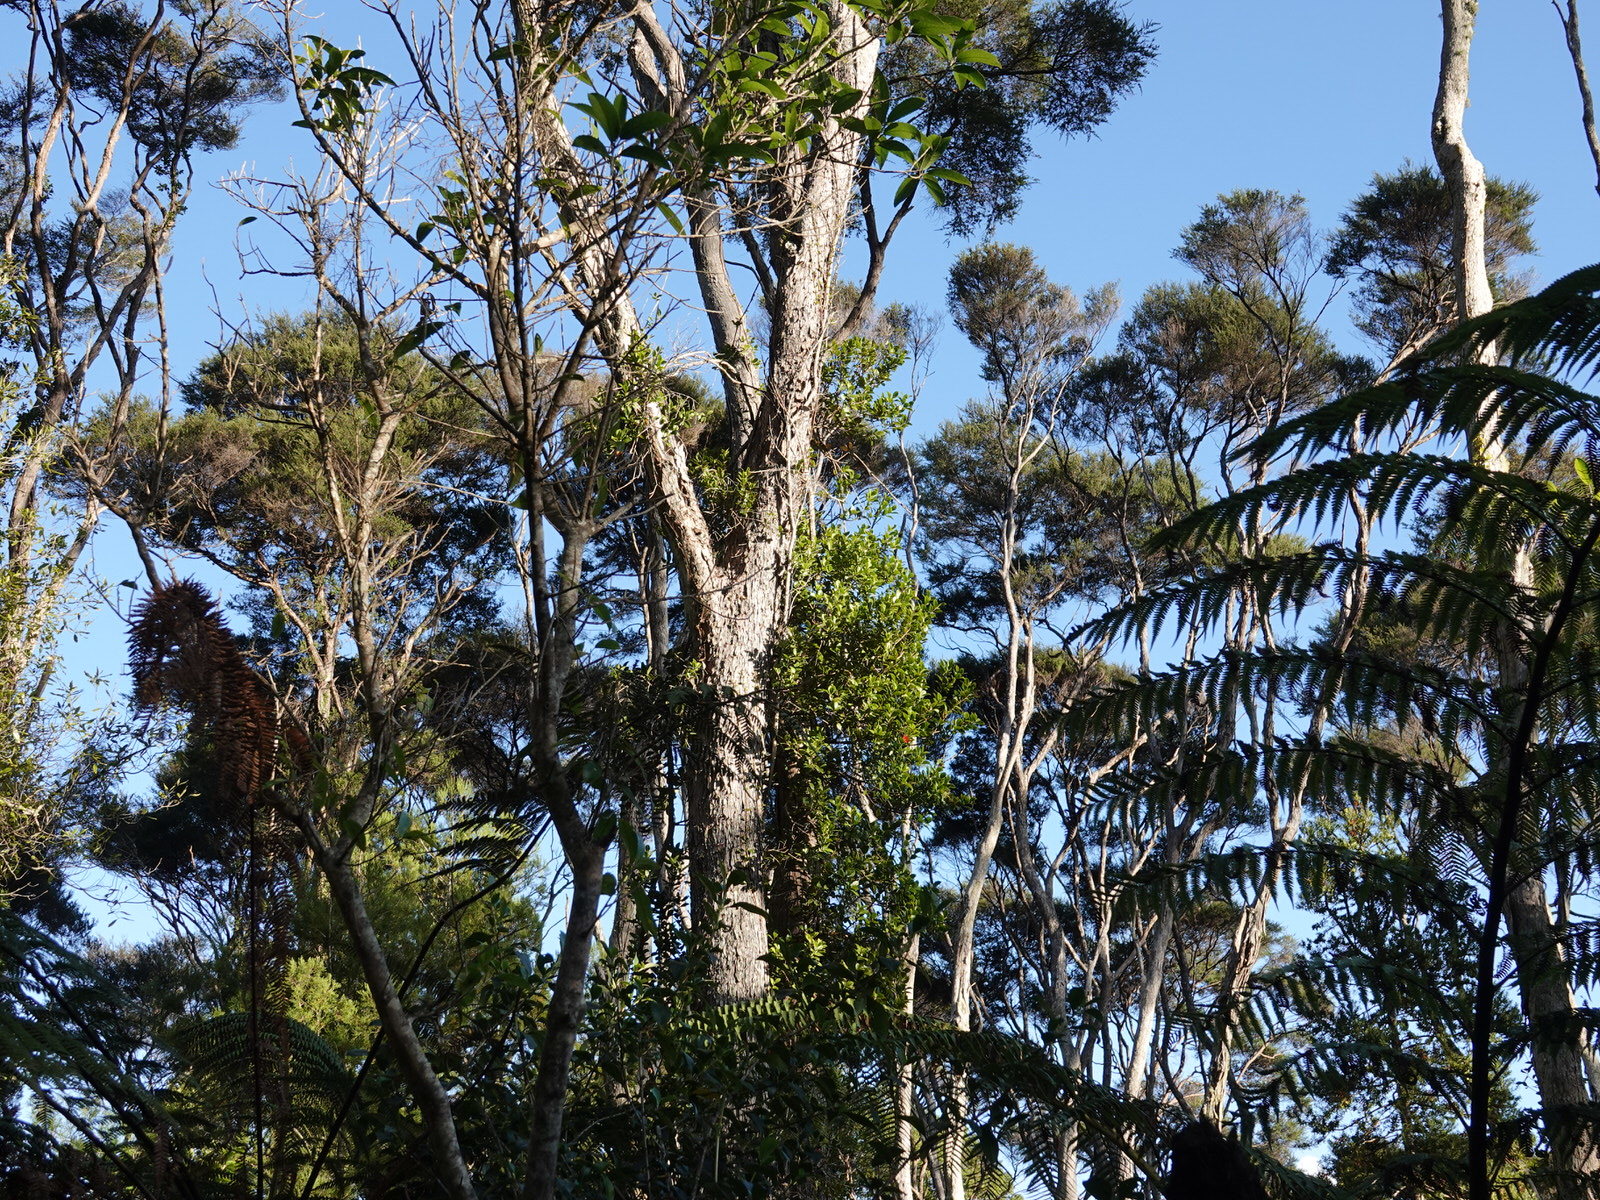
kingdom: Plantae
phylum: Tracheophyta
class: Magnoliopsida
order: Myrtales
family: Myrtaceae
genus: Metrosideros
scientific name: Metrosideros fulgens
